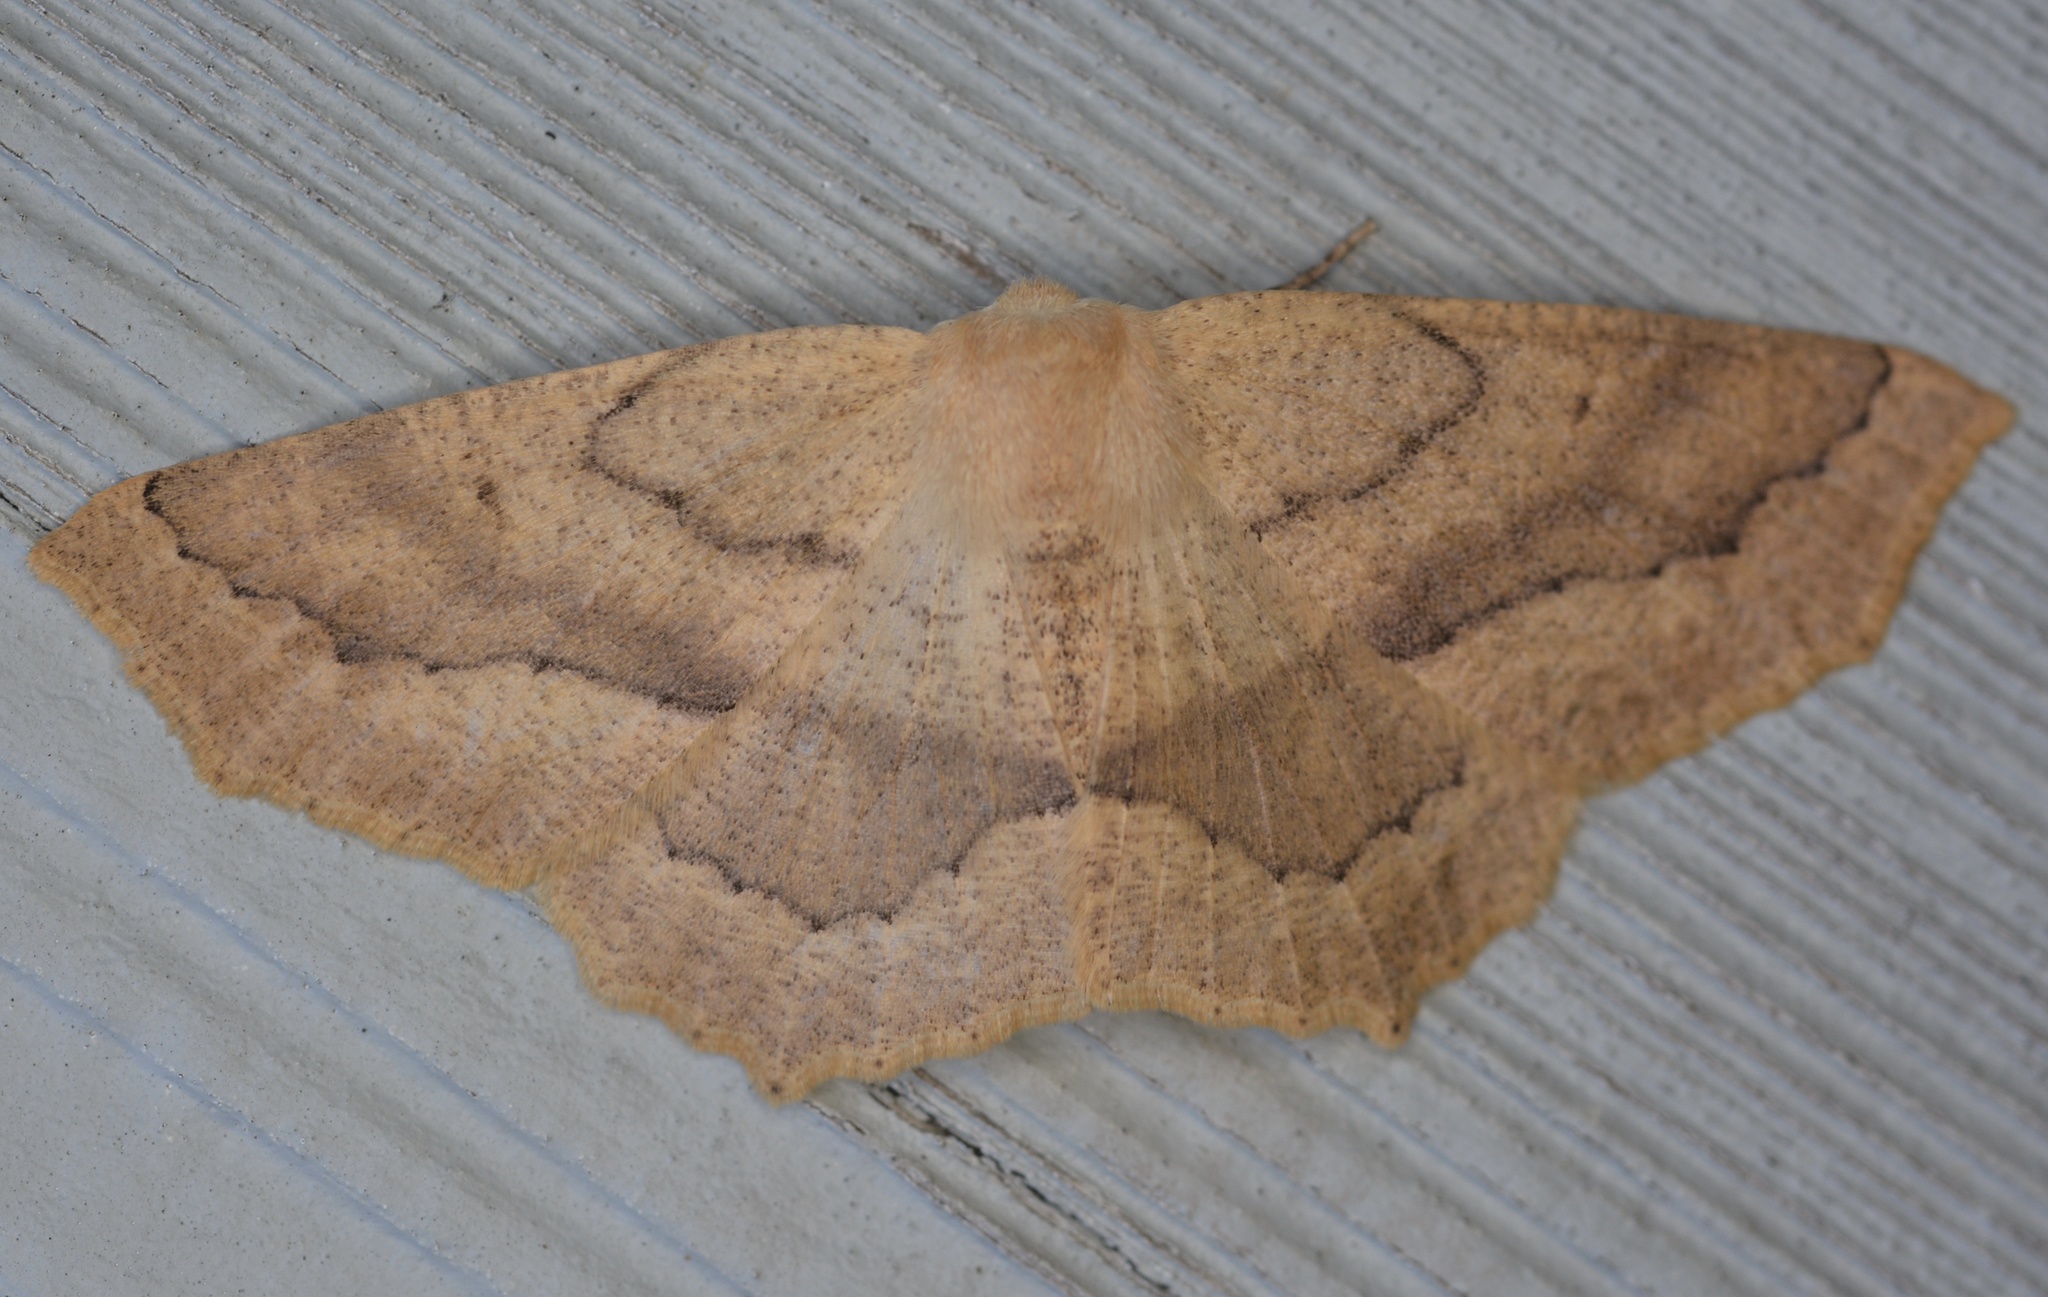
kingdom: Animalia
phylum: Arthropoda
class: Insecta
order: Lepidoptera
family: Geometridae
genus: Sabulodes
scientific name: Sabulodes aegrotata
